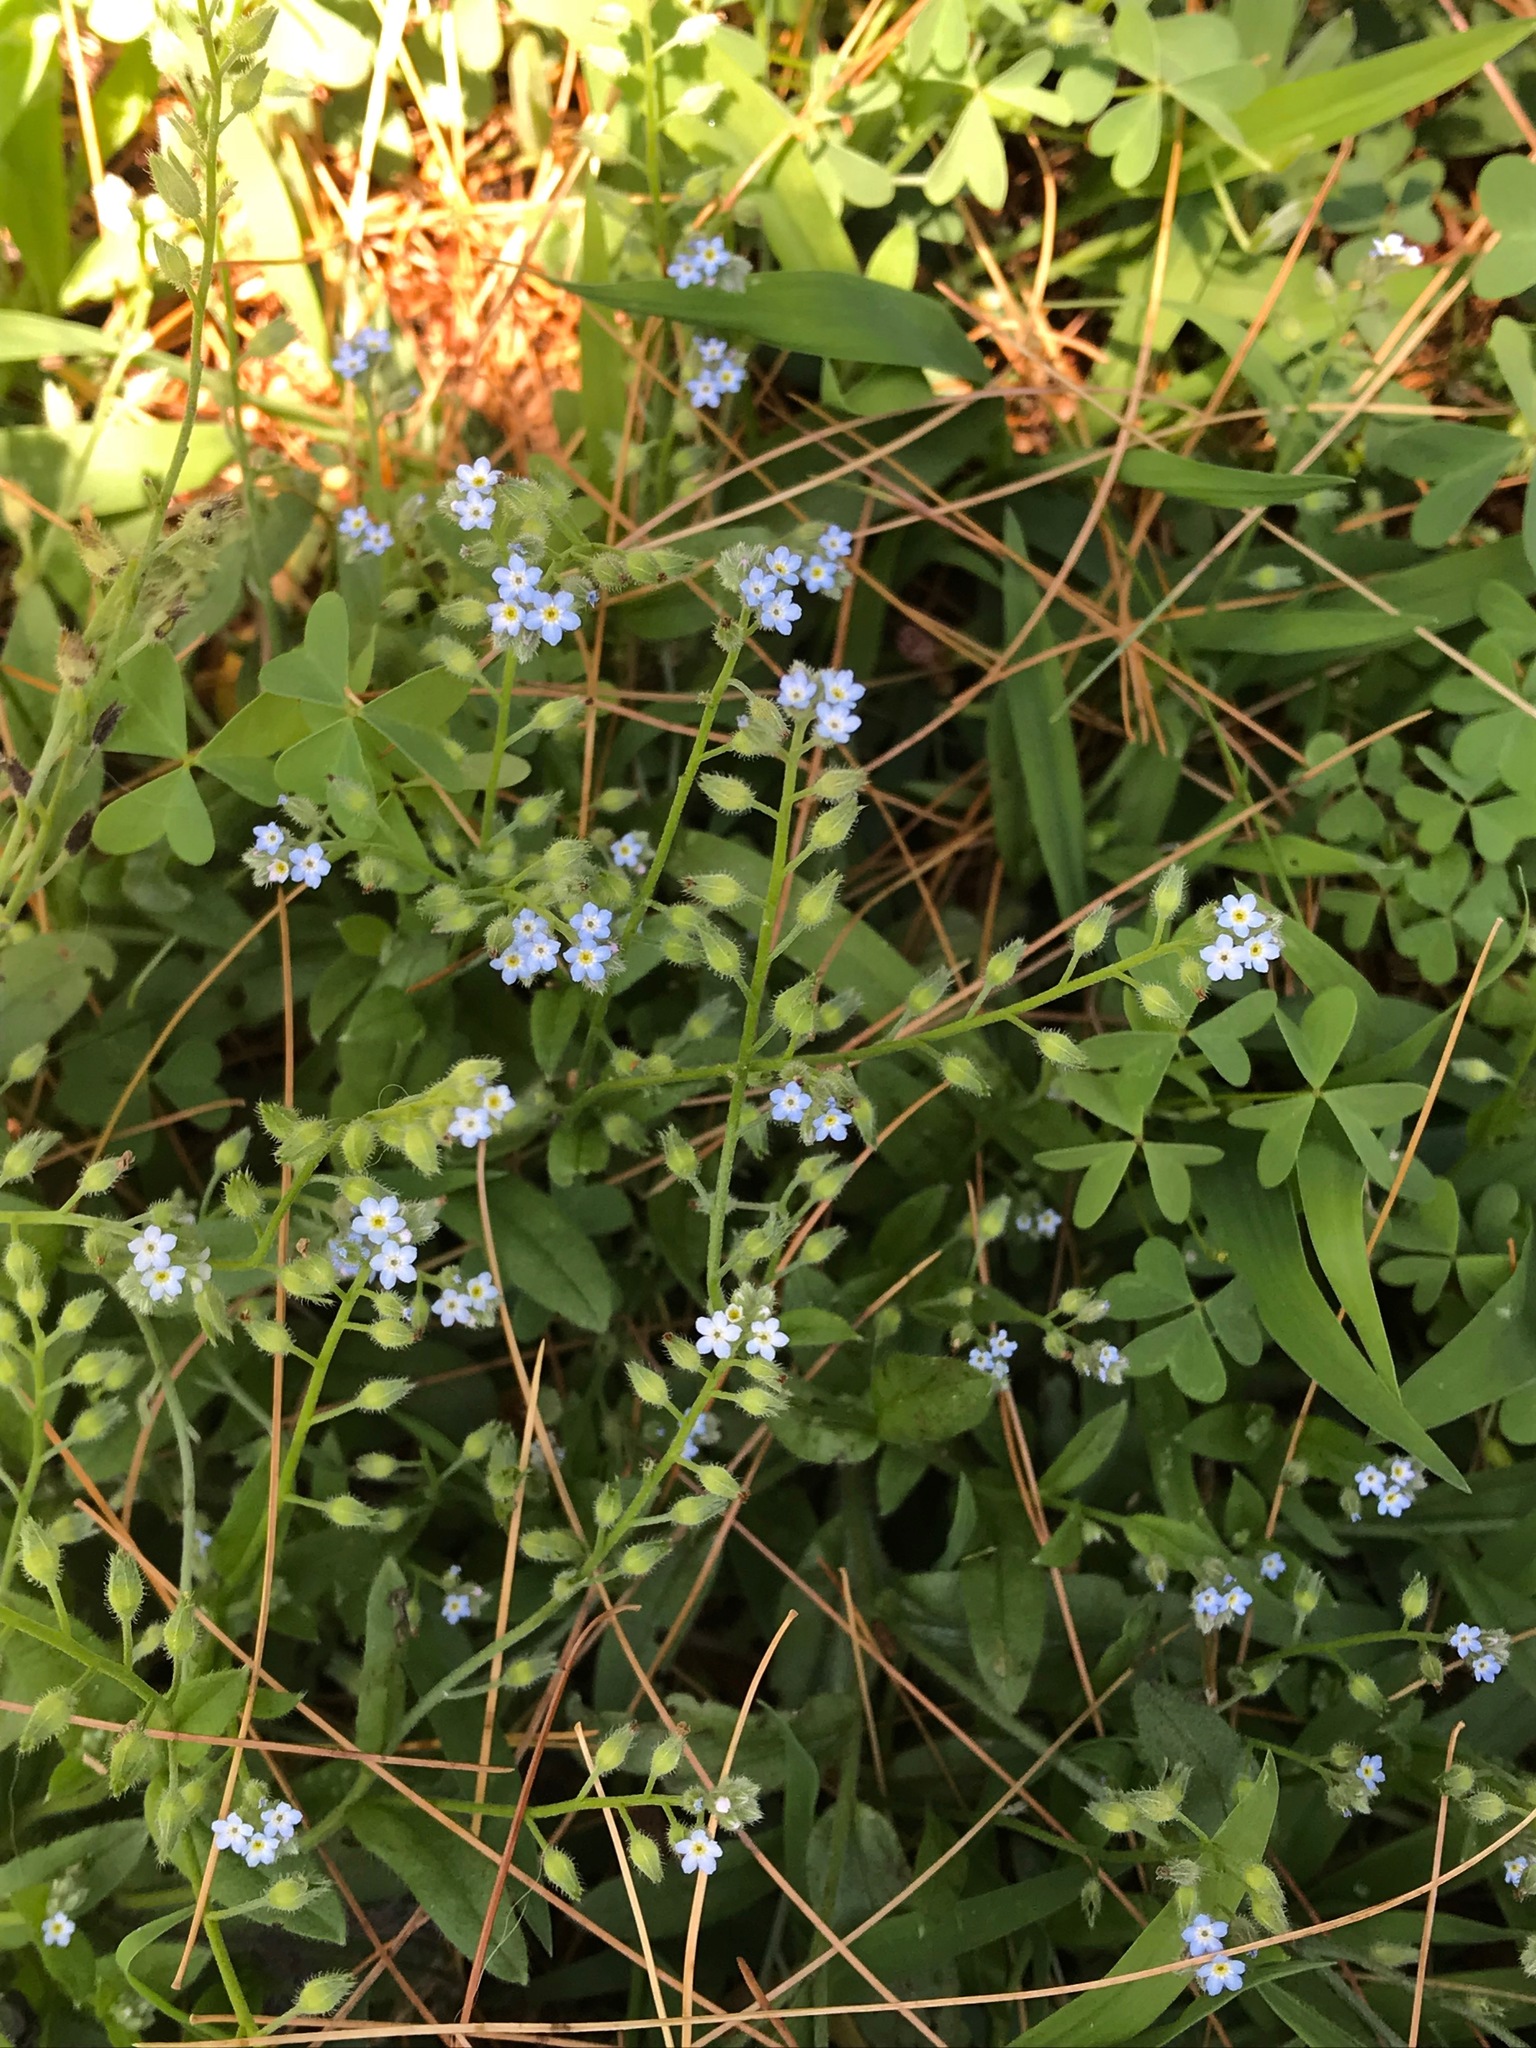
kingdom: Plantae
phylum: Tracheophyta
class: Magnoliopsida
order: Boraginales
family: Boraginaceae
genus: Myosotis
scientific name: Myosotis arvensis
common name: Field forget-me-not
